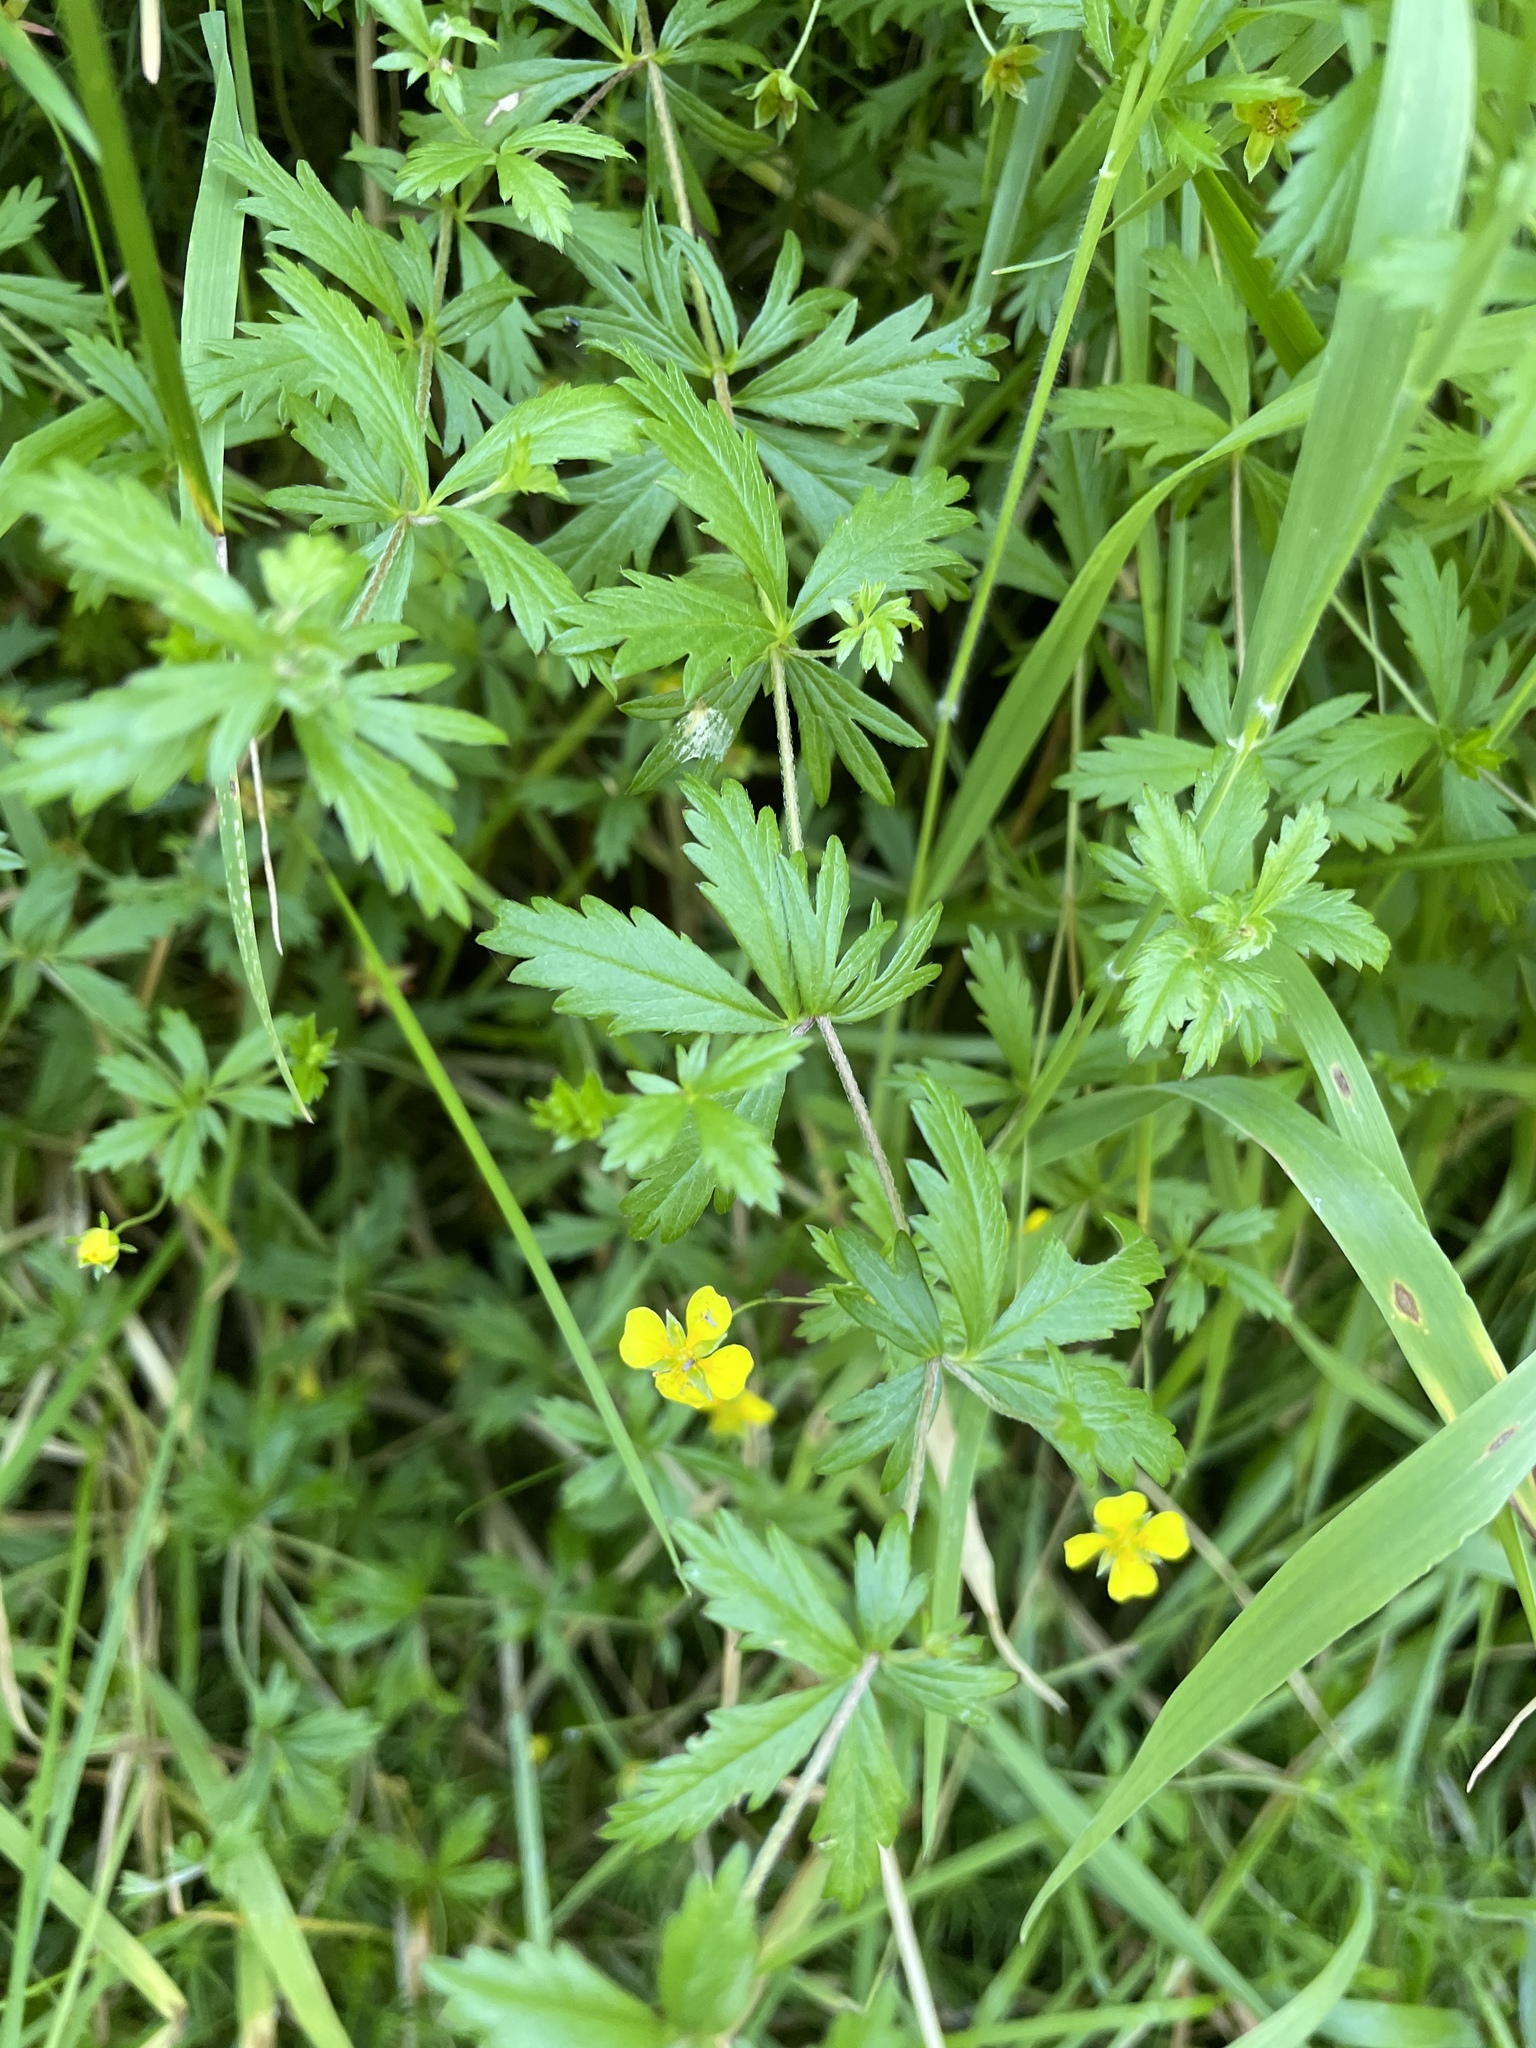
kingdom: Plantae
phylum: Tracheophyta
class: Magnoliopsida
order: Rosales
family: Rosaceae
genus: Potentilla
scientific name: Potentilla erecta
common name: Tormentil
